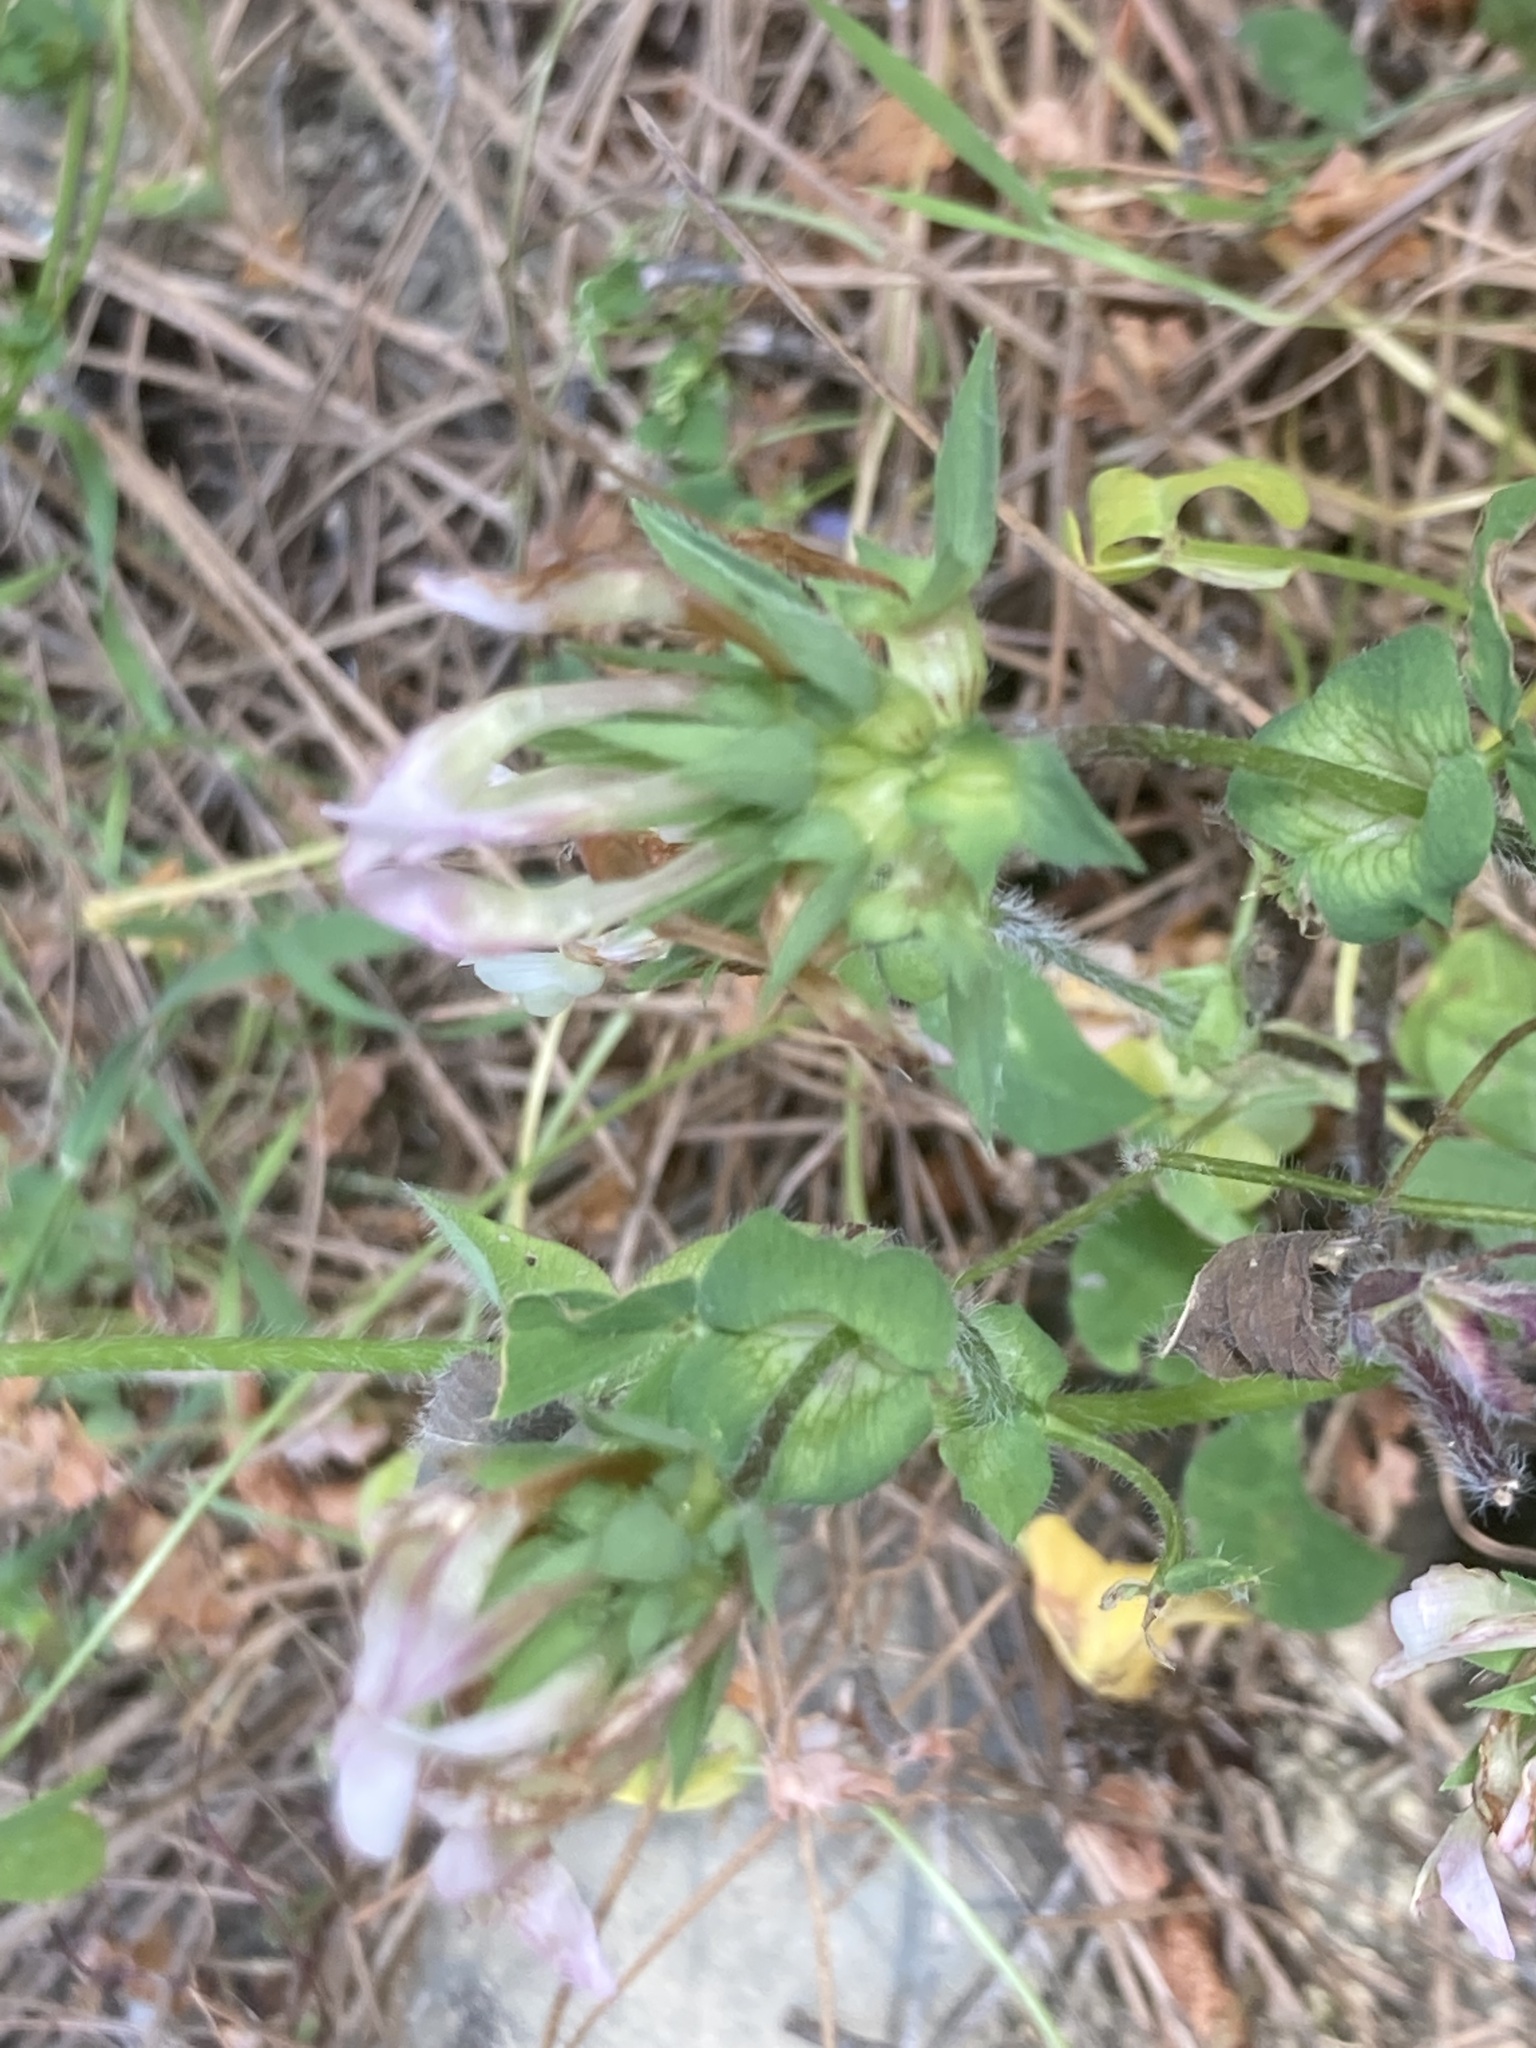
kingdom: Plantae
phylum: Tracheophyta
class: Magnoliopsida
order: Fabales
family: Fabaceae
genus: Trifolium
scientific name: Trifolium clypeatum
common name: Shield clover
